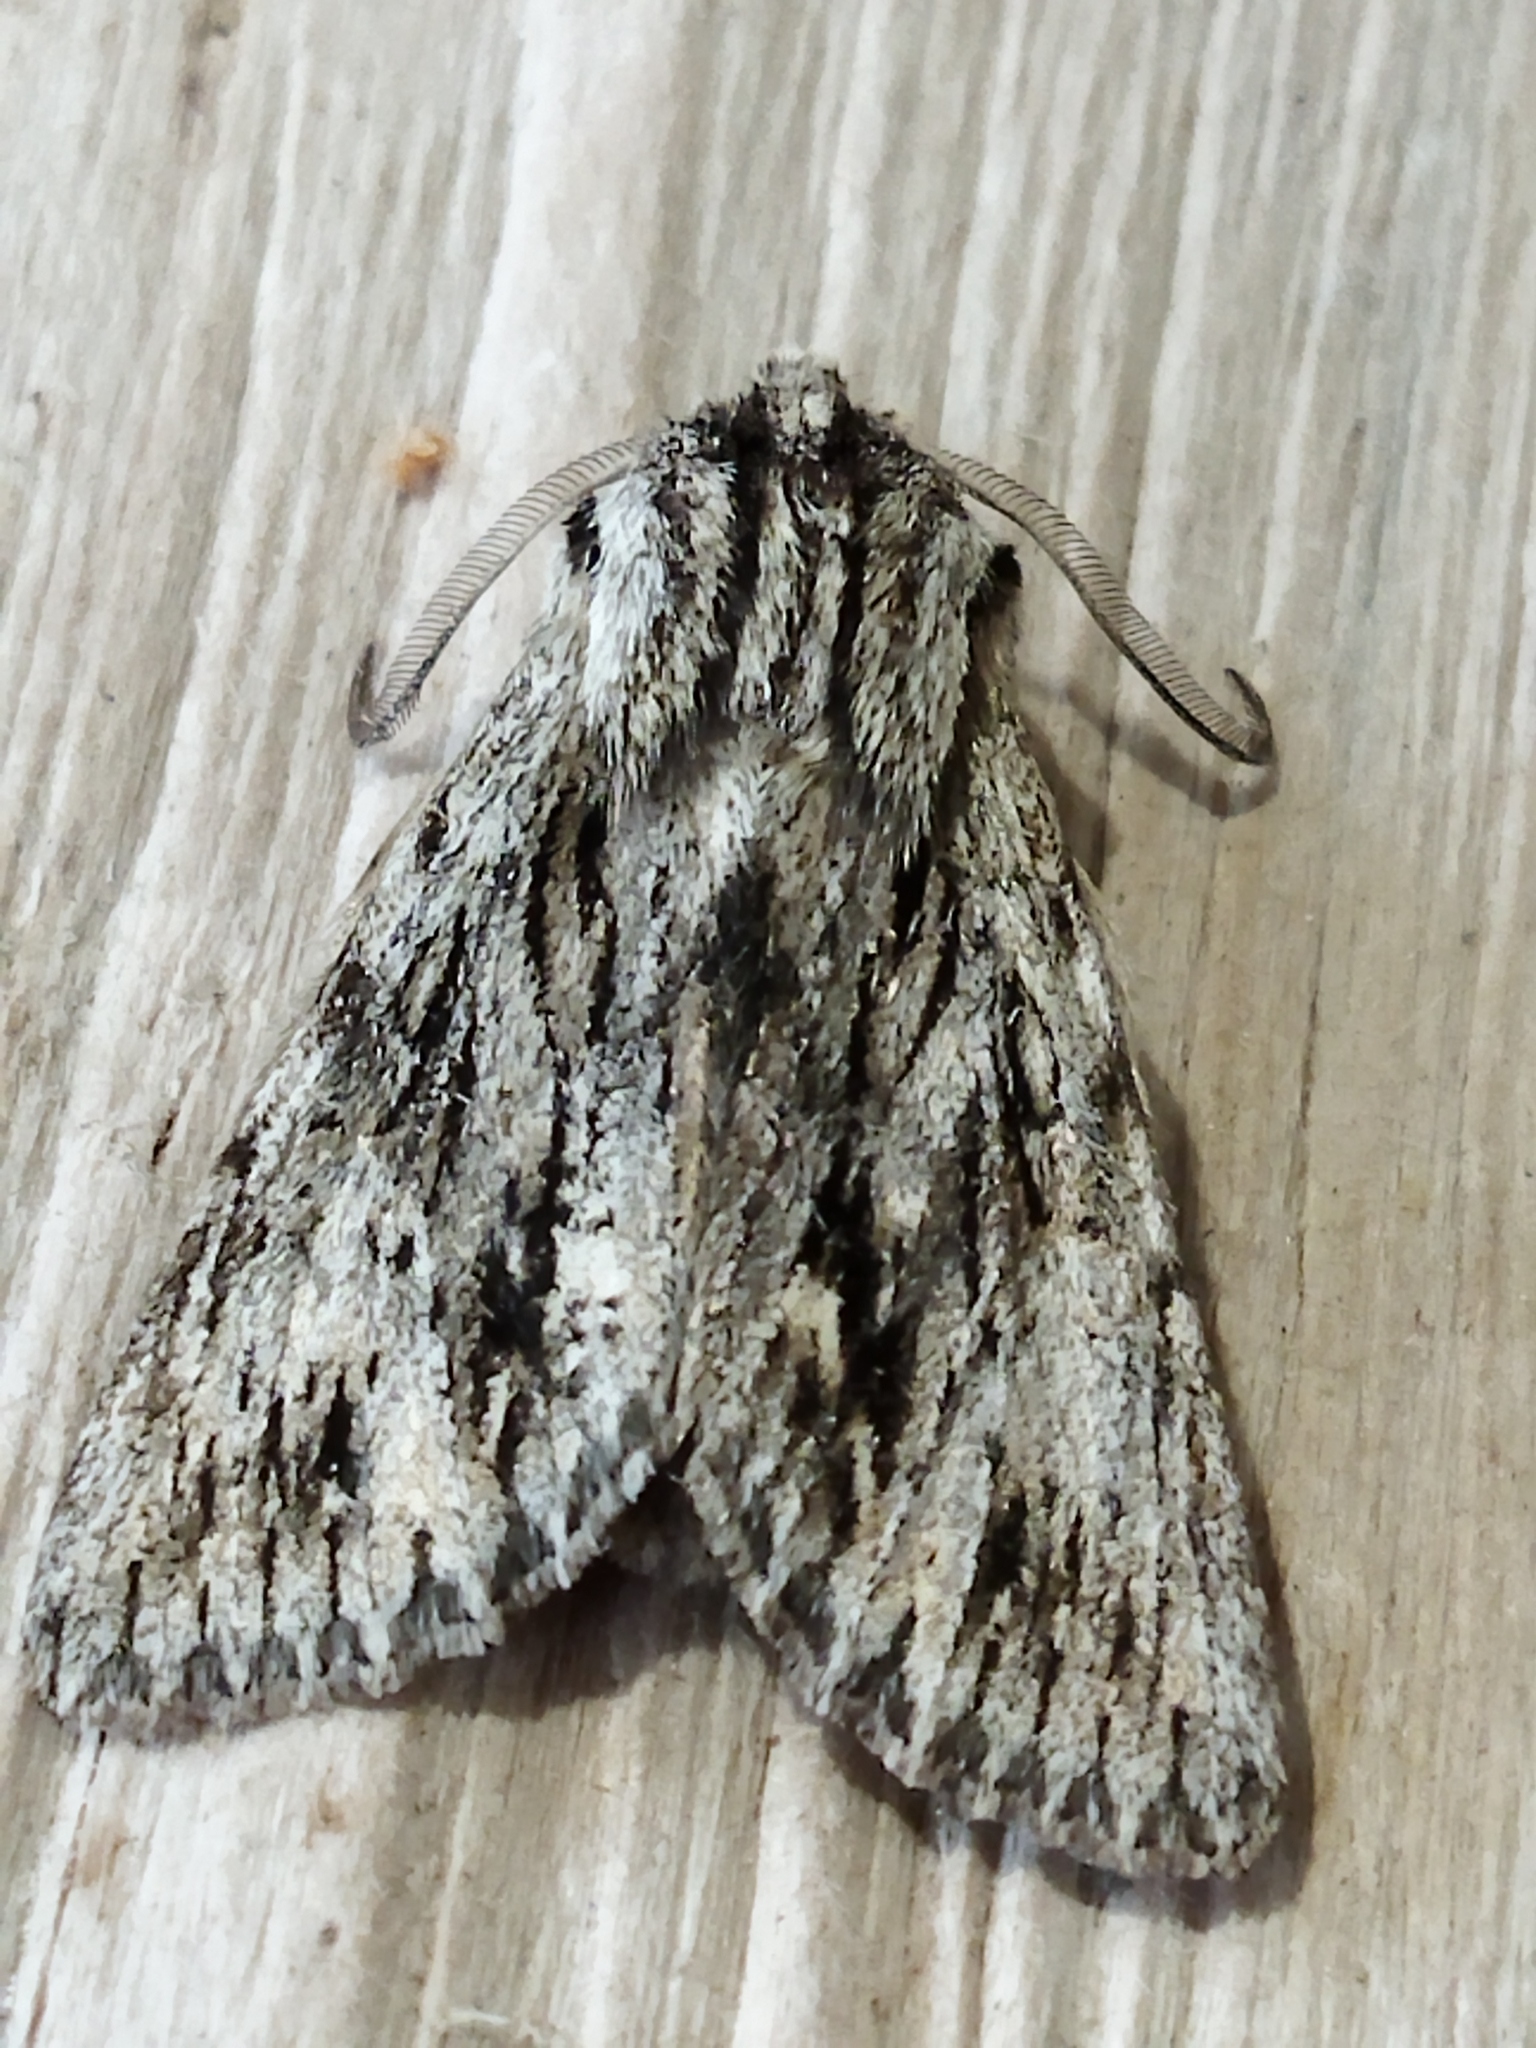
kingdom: Animalia
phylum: Arthropoda
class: Insecta
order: Lepidoptera
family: Noctuidae
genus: Asteroscopus
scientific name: Asteroscopus sphinx
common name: The sprawler
